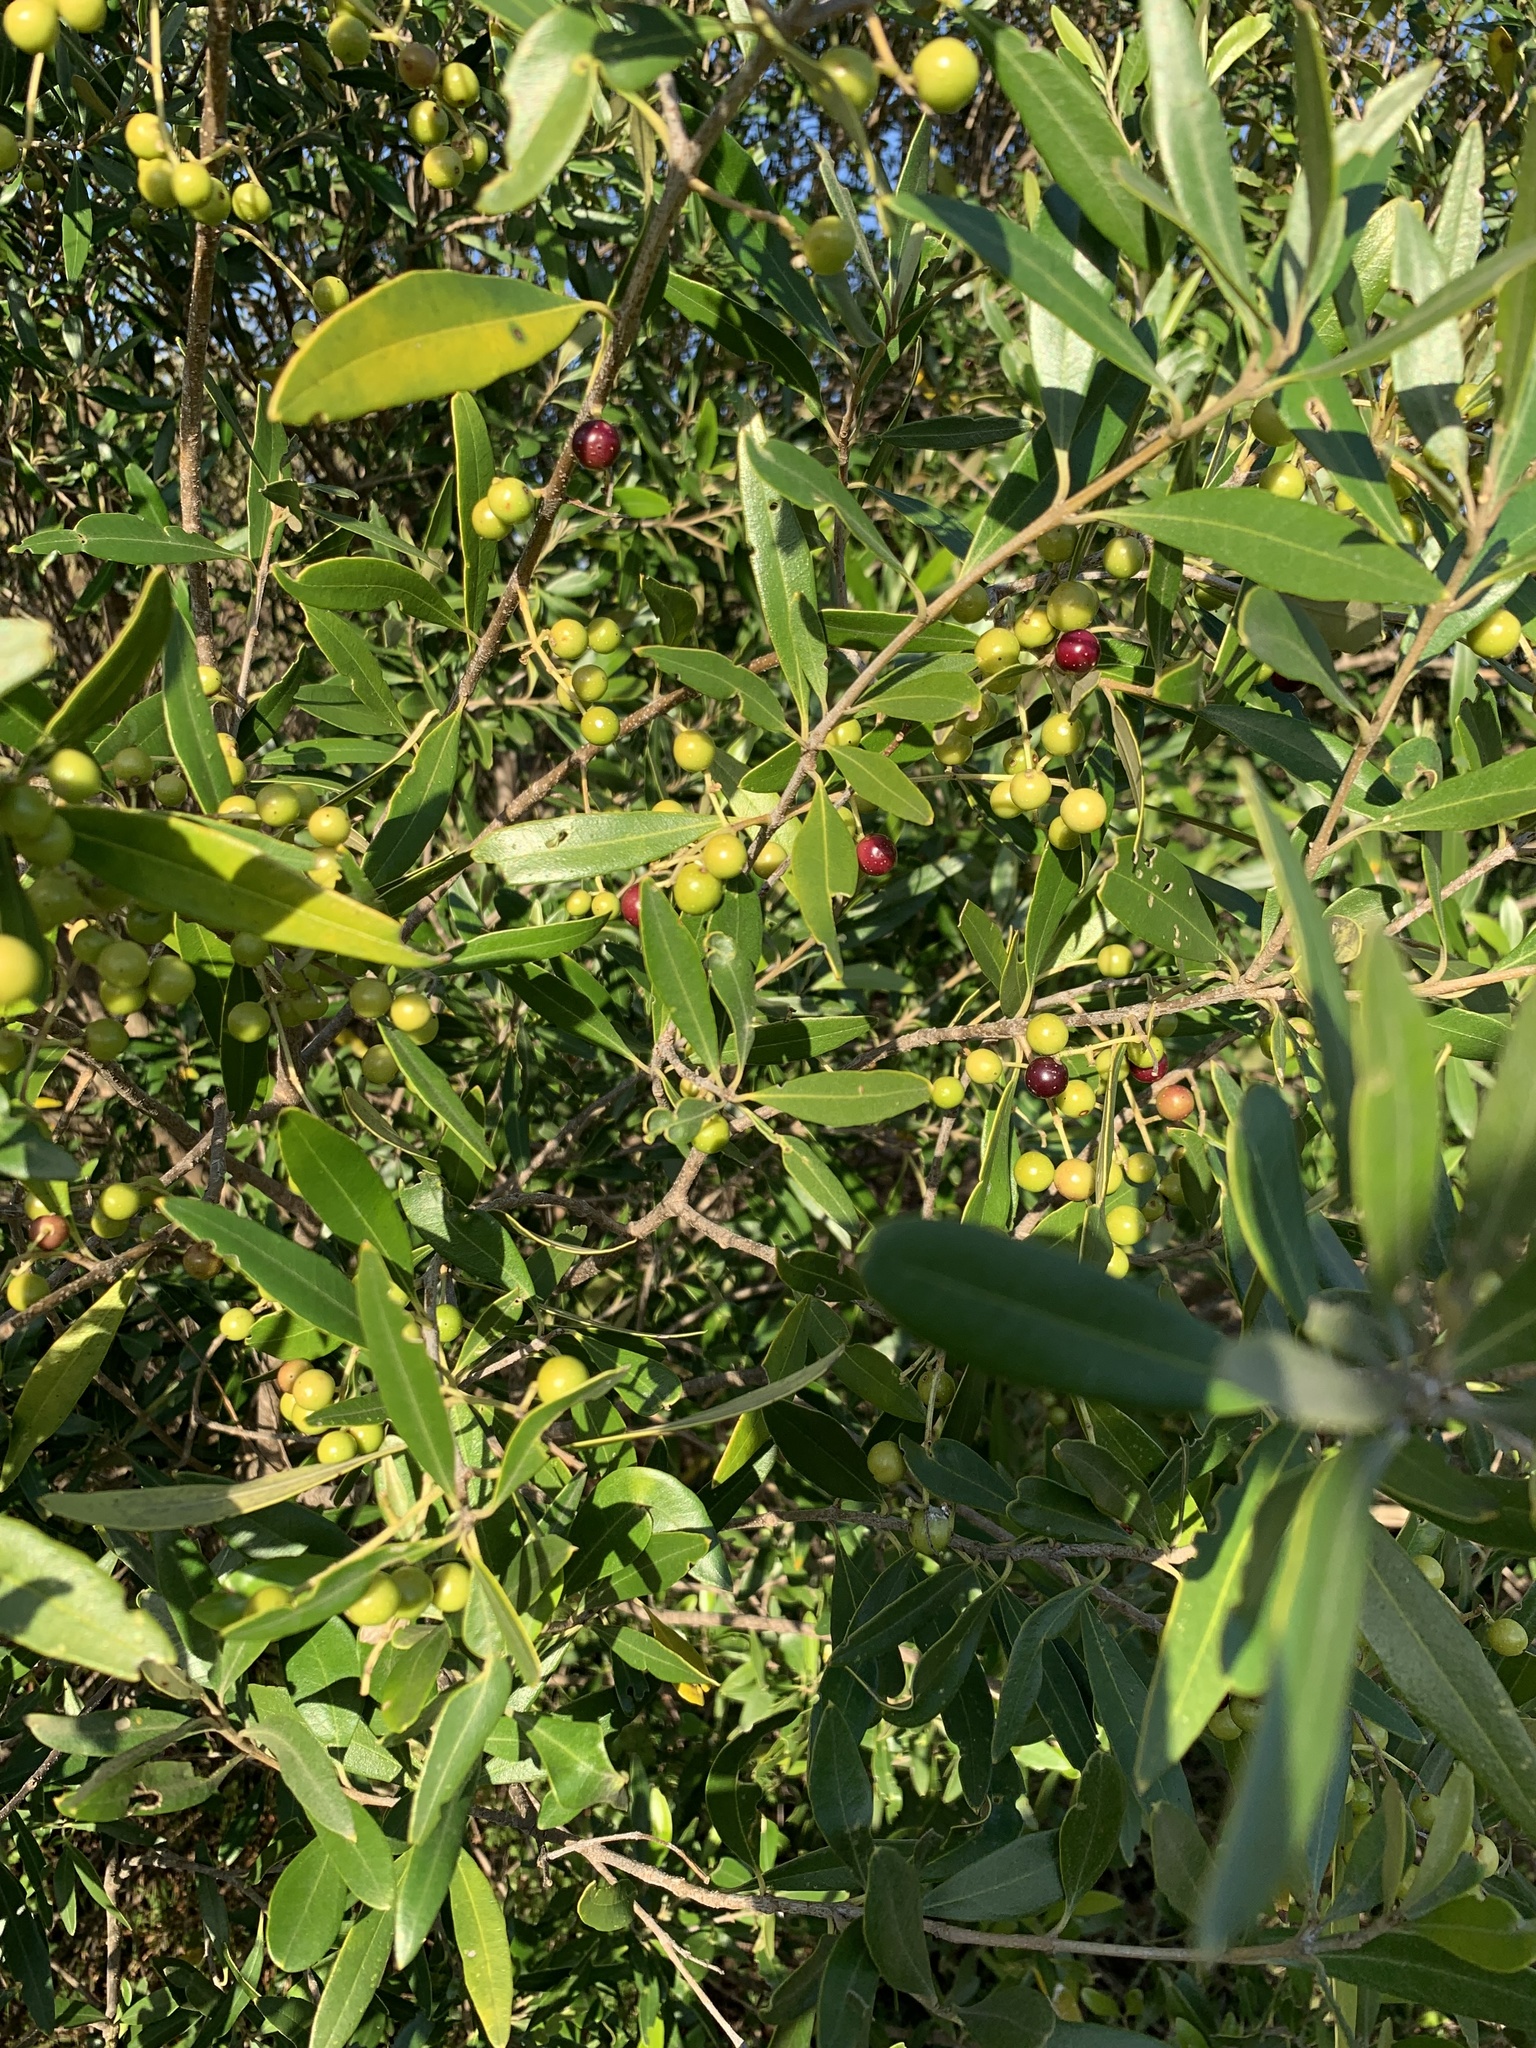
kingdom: Plantae
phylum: Tracheophyta
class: Magnoliopsida
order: Lamiales
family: Oleaceae
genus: Olea
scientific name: Olea europaea
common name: Olive
